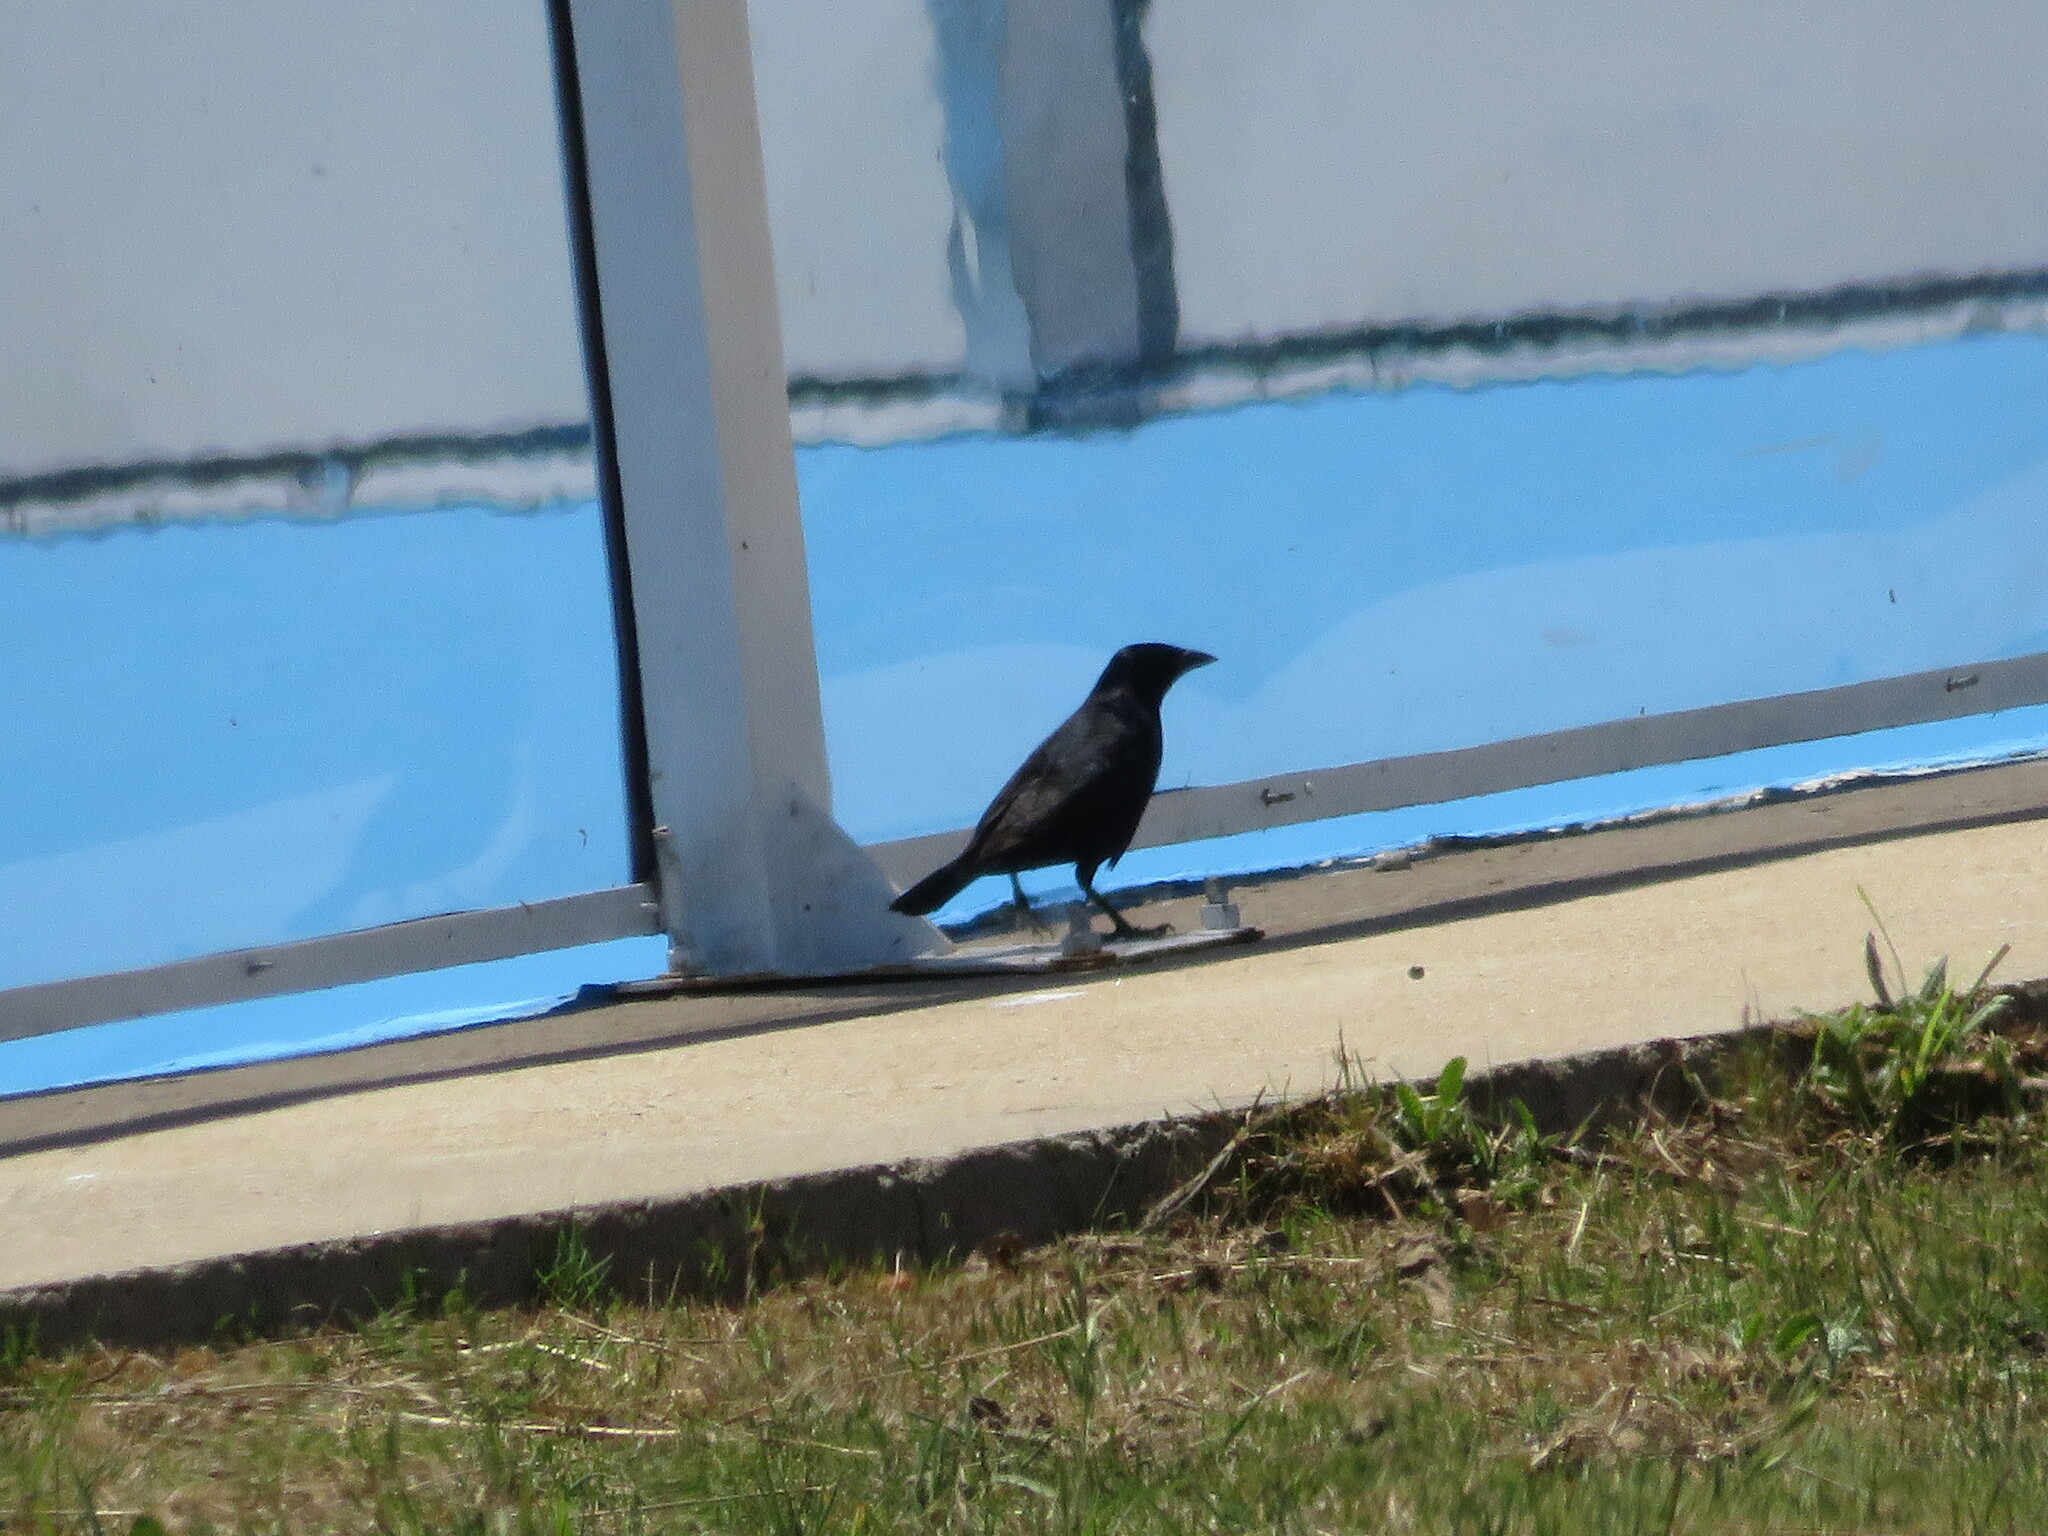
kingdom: Animalia
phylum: Chordata
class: Aves
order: Passeriformes
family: Icteridae
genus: Molothrus
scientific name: Molothrus bonariensis
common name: Shiny cowbird
